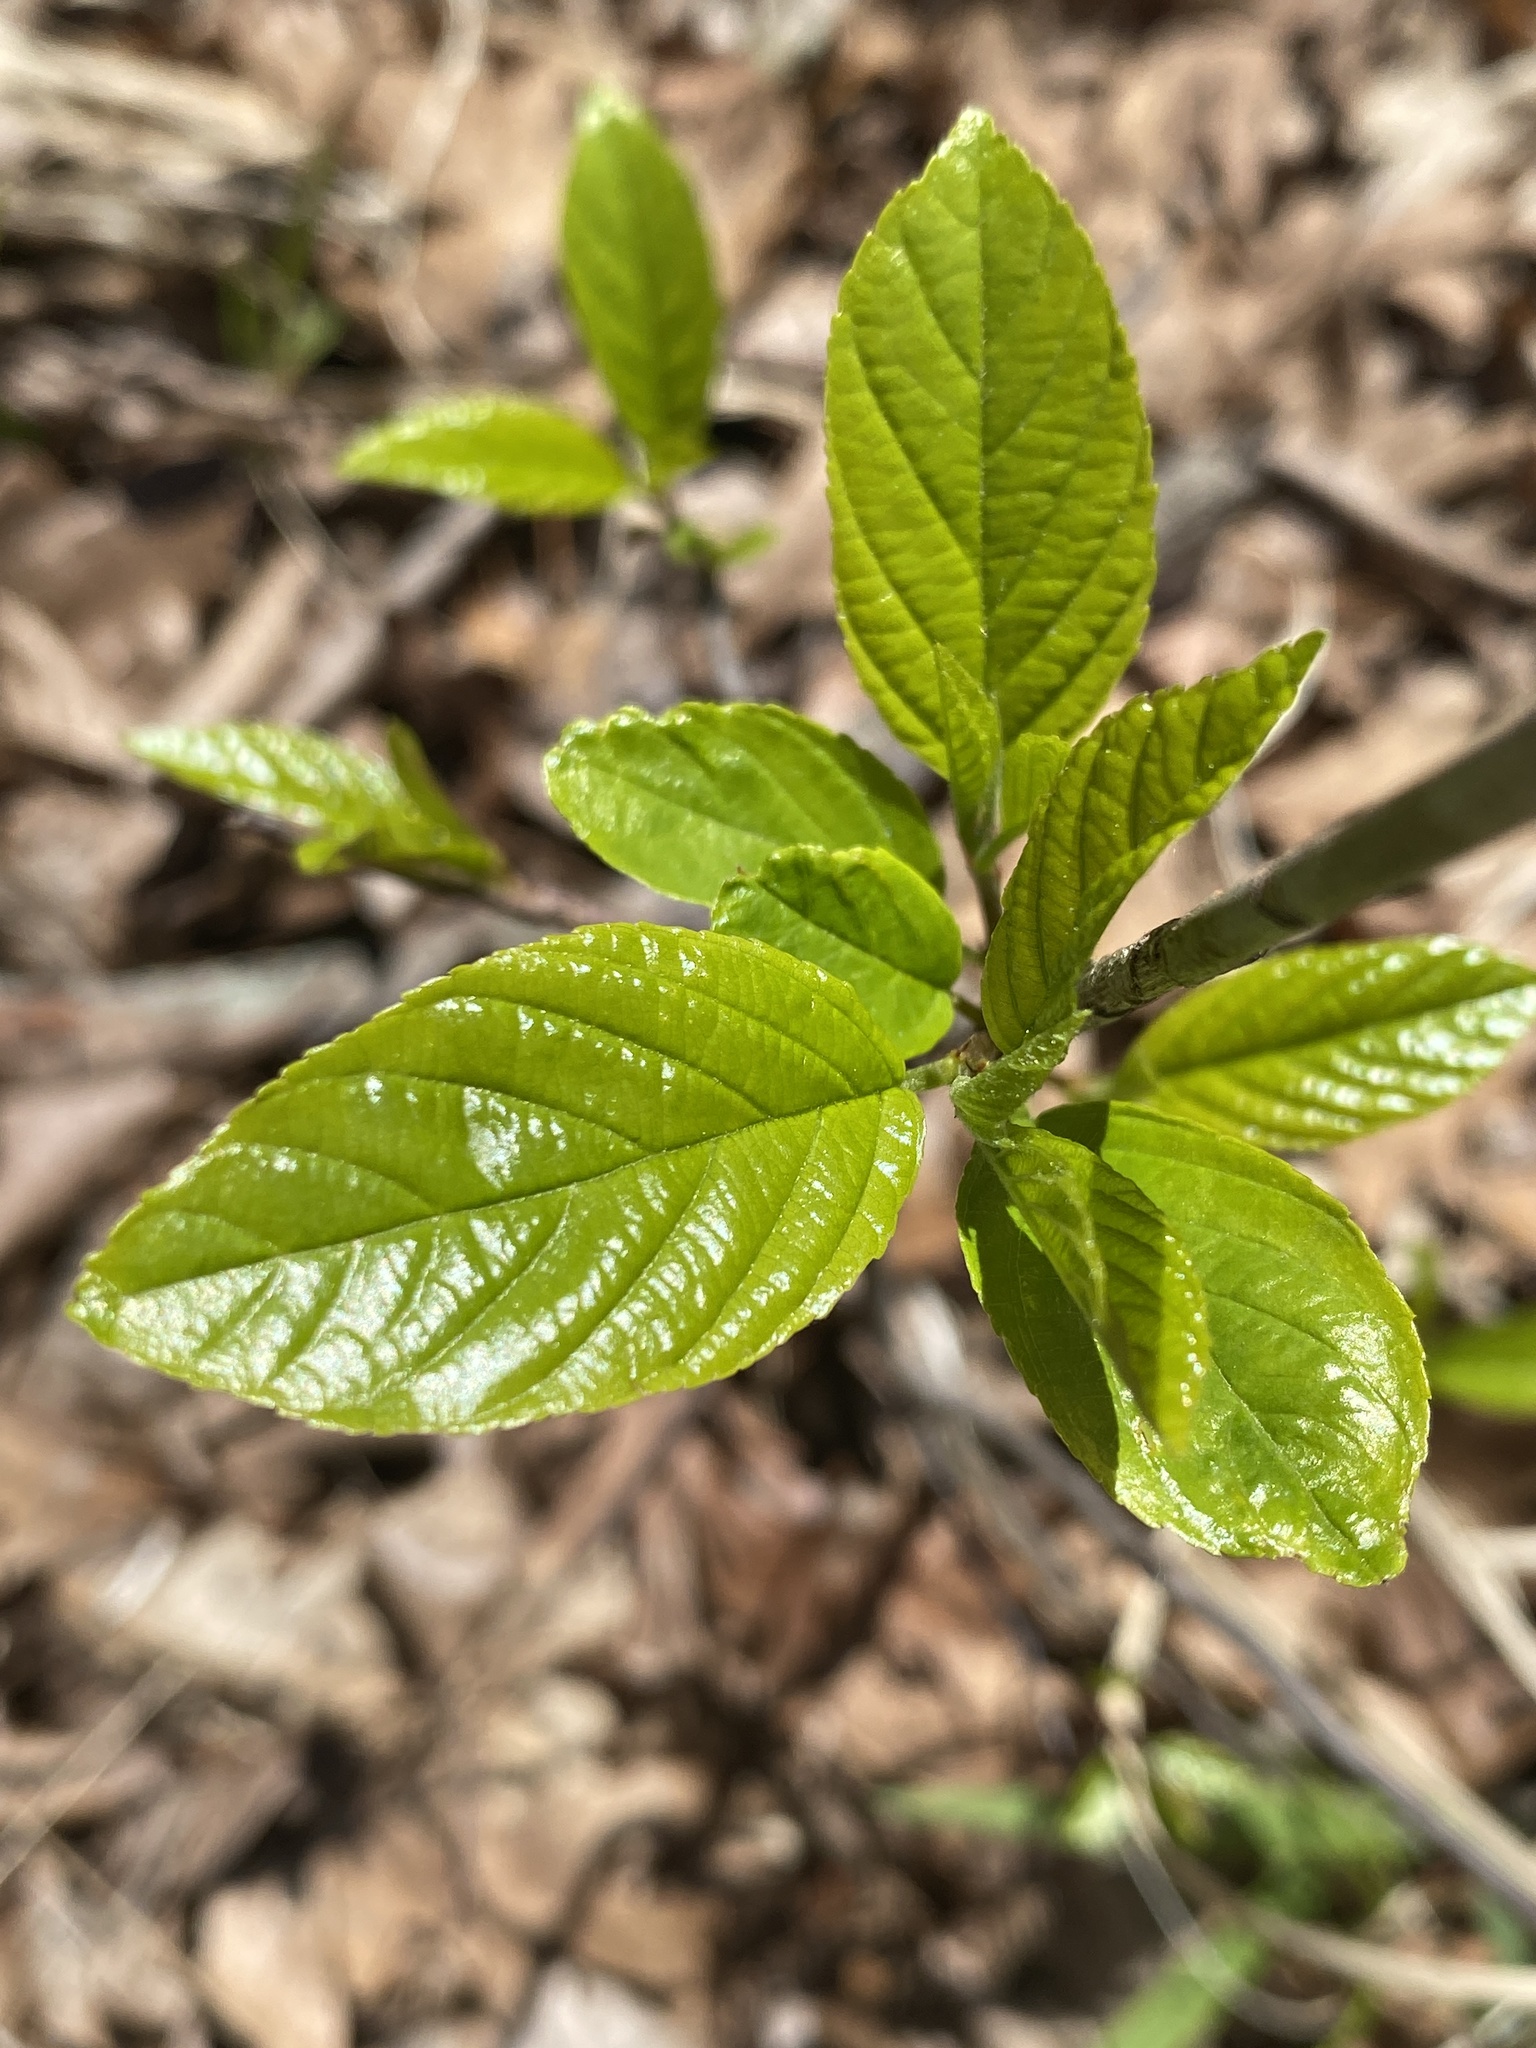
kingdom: Plantae
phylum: Tracheophyta
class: Magnoliopsida
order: Rosales
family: Rhamnaceae
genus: Frangula
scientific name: Frangula caroliniana
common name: Carolina buckthorn
